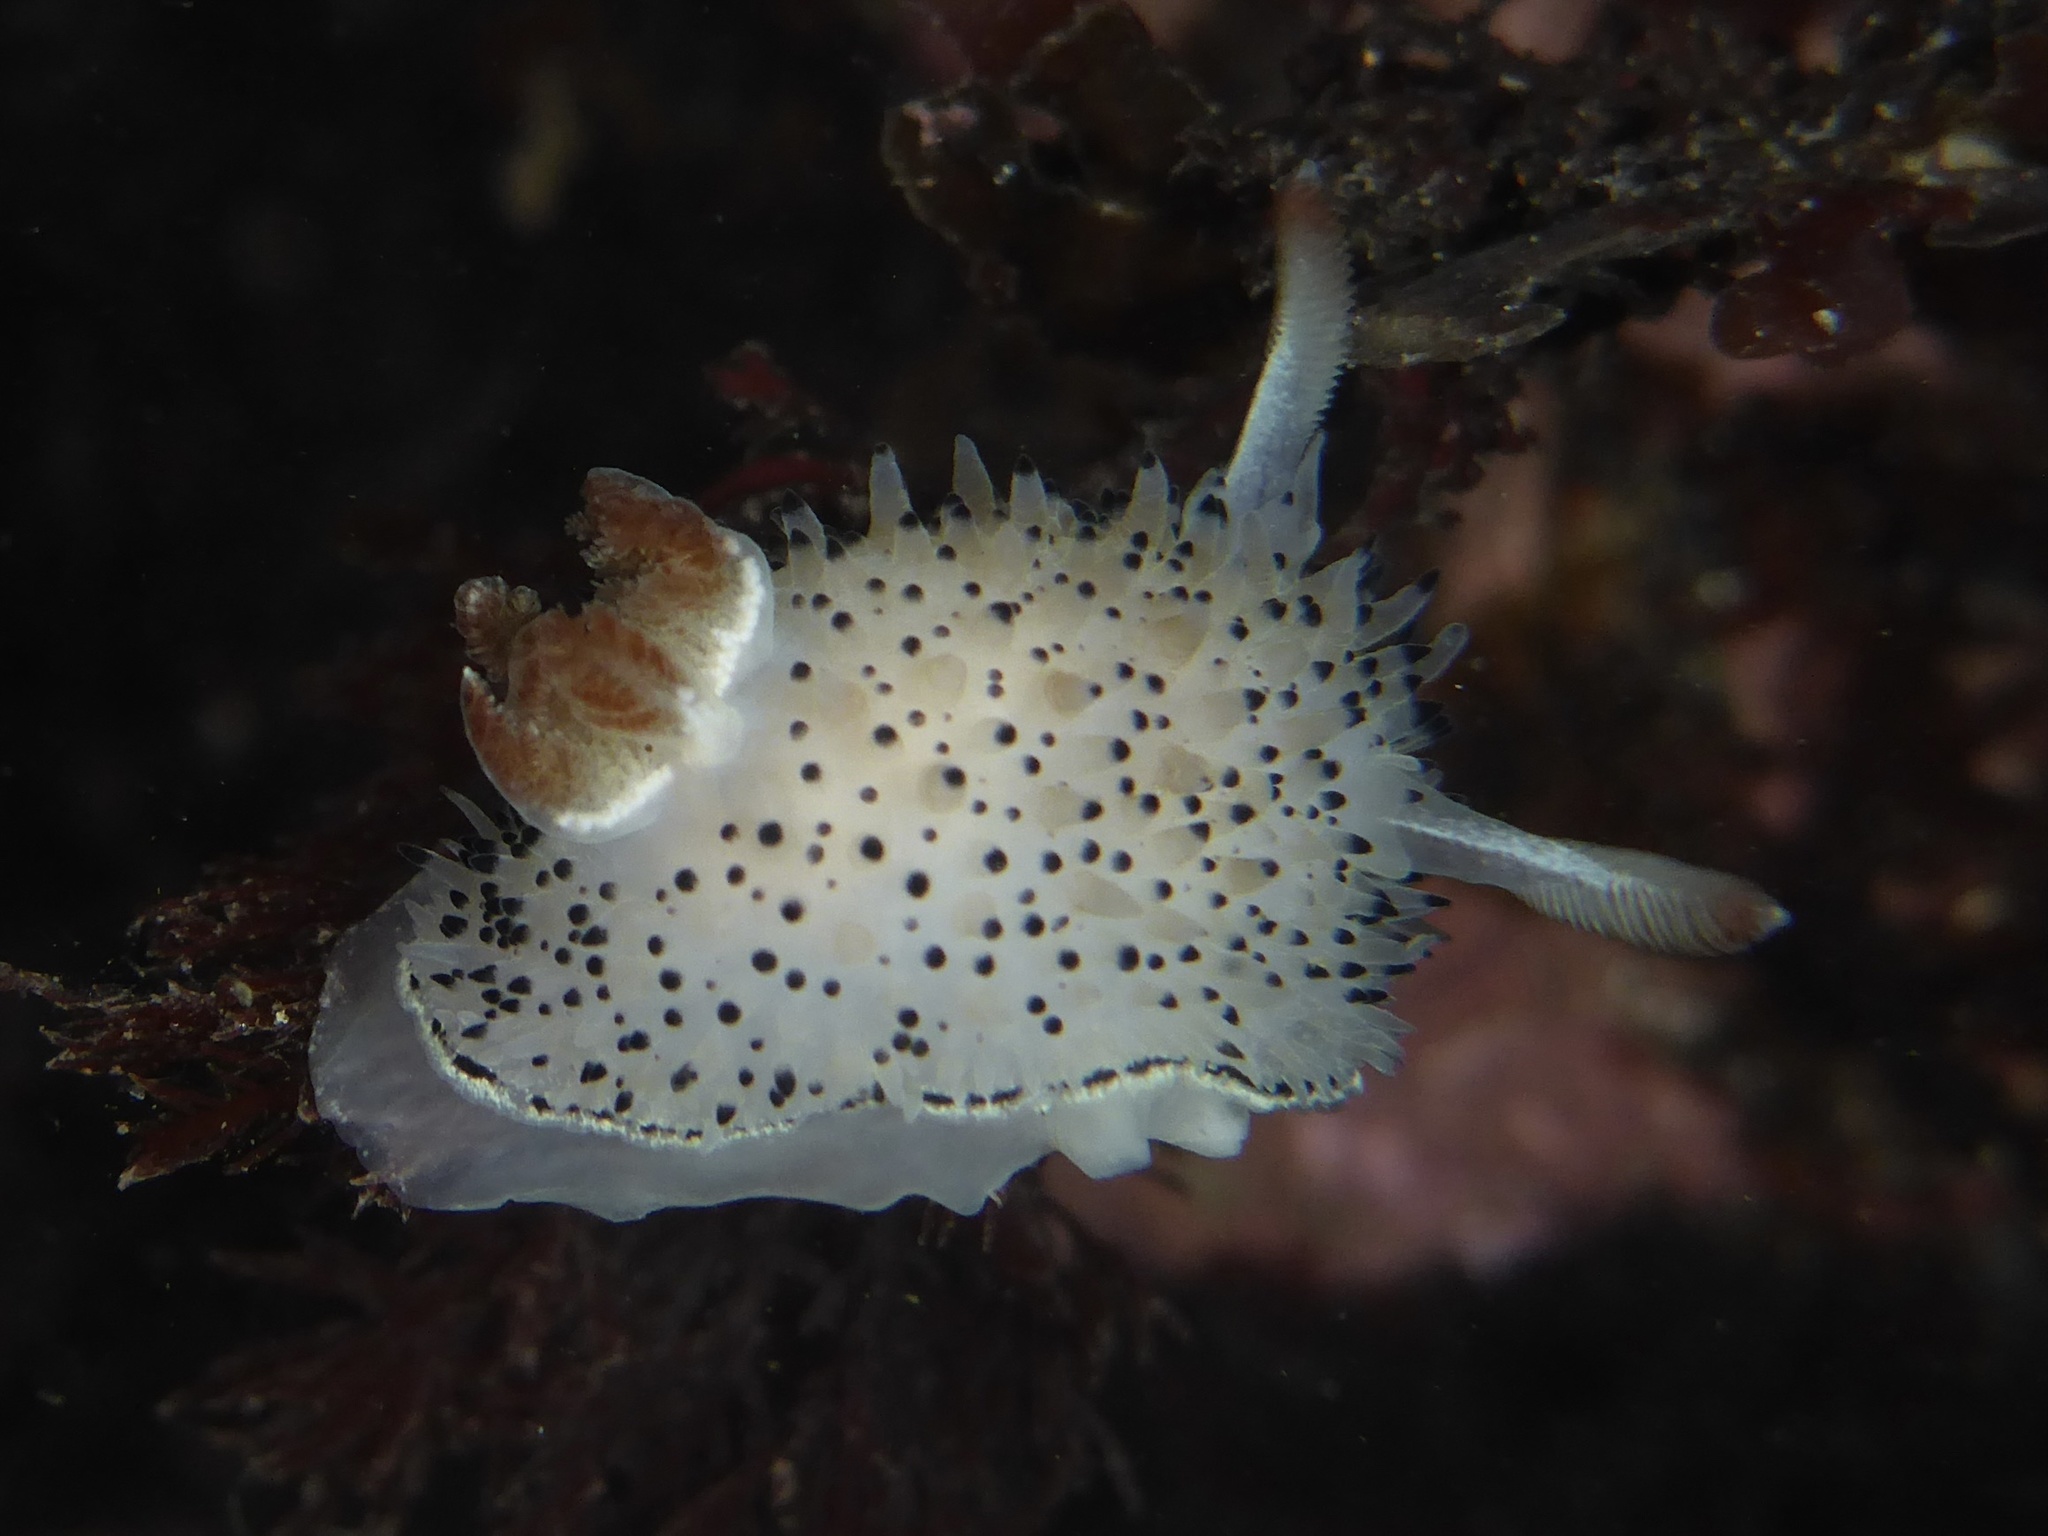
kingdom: Animalia
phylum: Mollusca
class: Gastropoda
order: Nudibranchia
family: Onchidorididae
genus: Acanthodoris
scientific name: Acanthodoris rhodoceras
